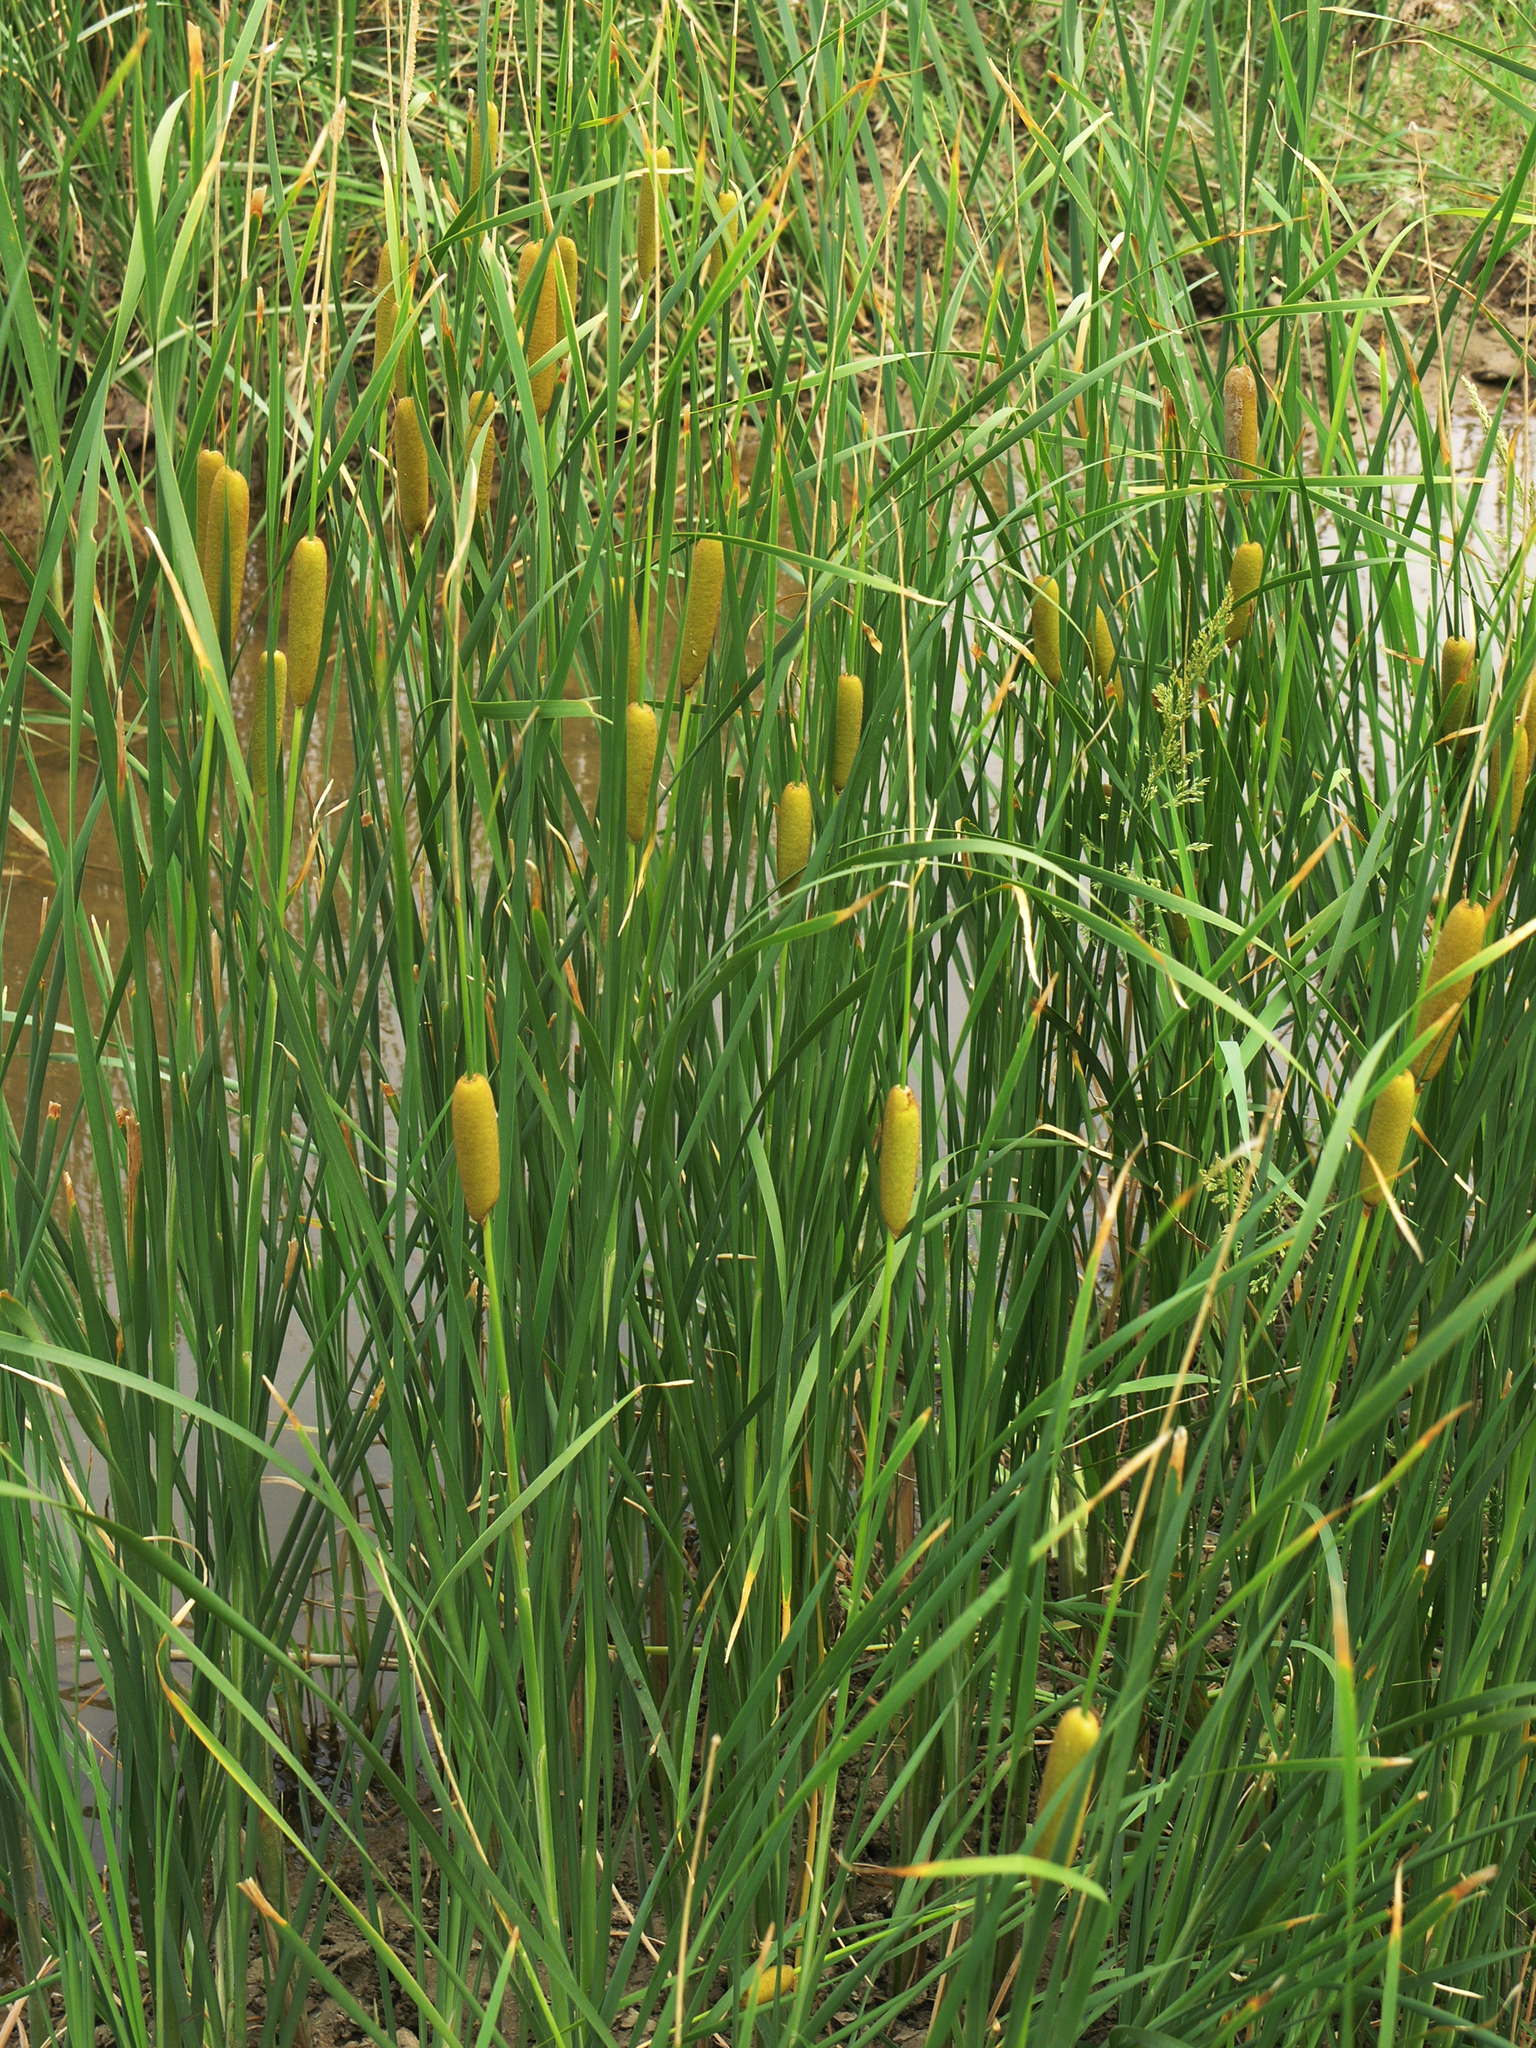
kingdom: Plantae
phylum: Tracheophyta
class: Liliopsida
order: Poales
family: Typhaceae
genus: Typha
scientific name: Typha laxmannii
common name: Laxman’s bulrush
